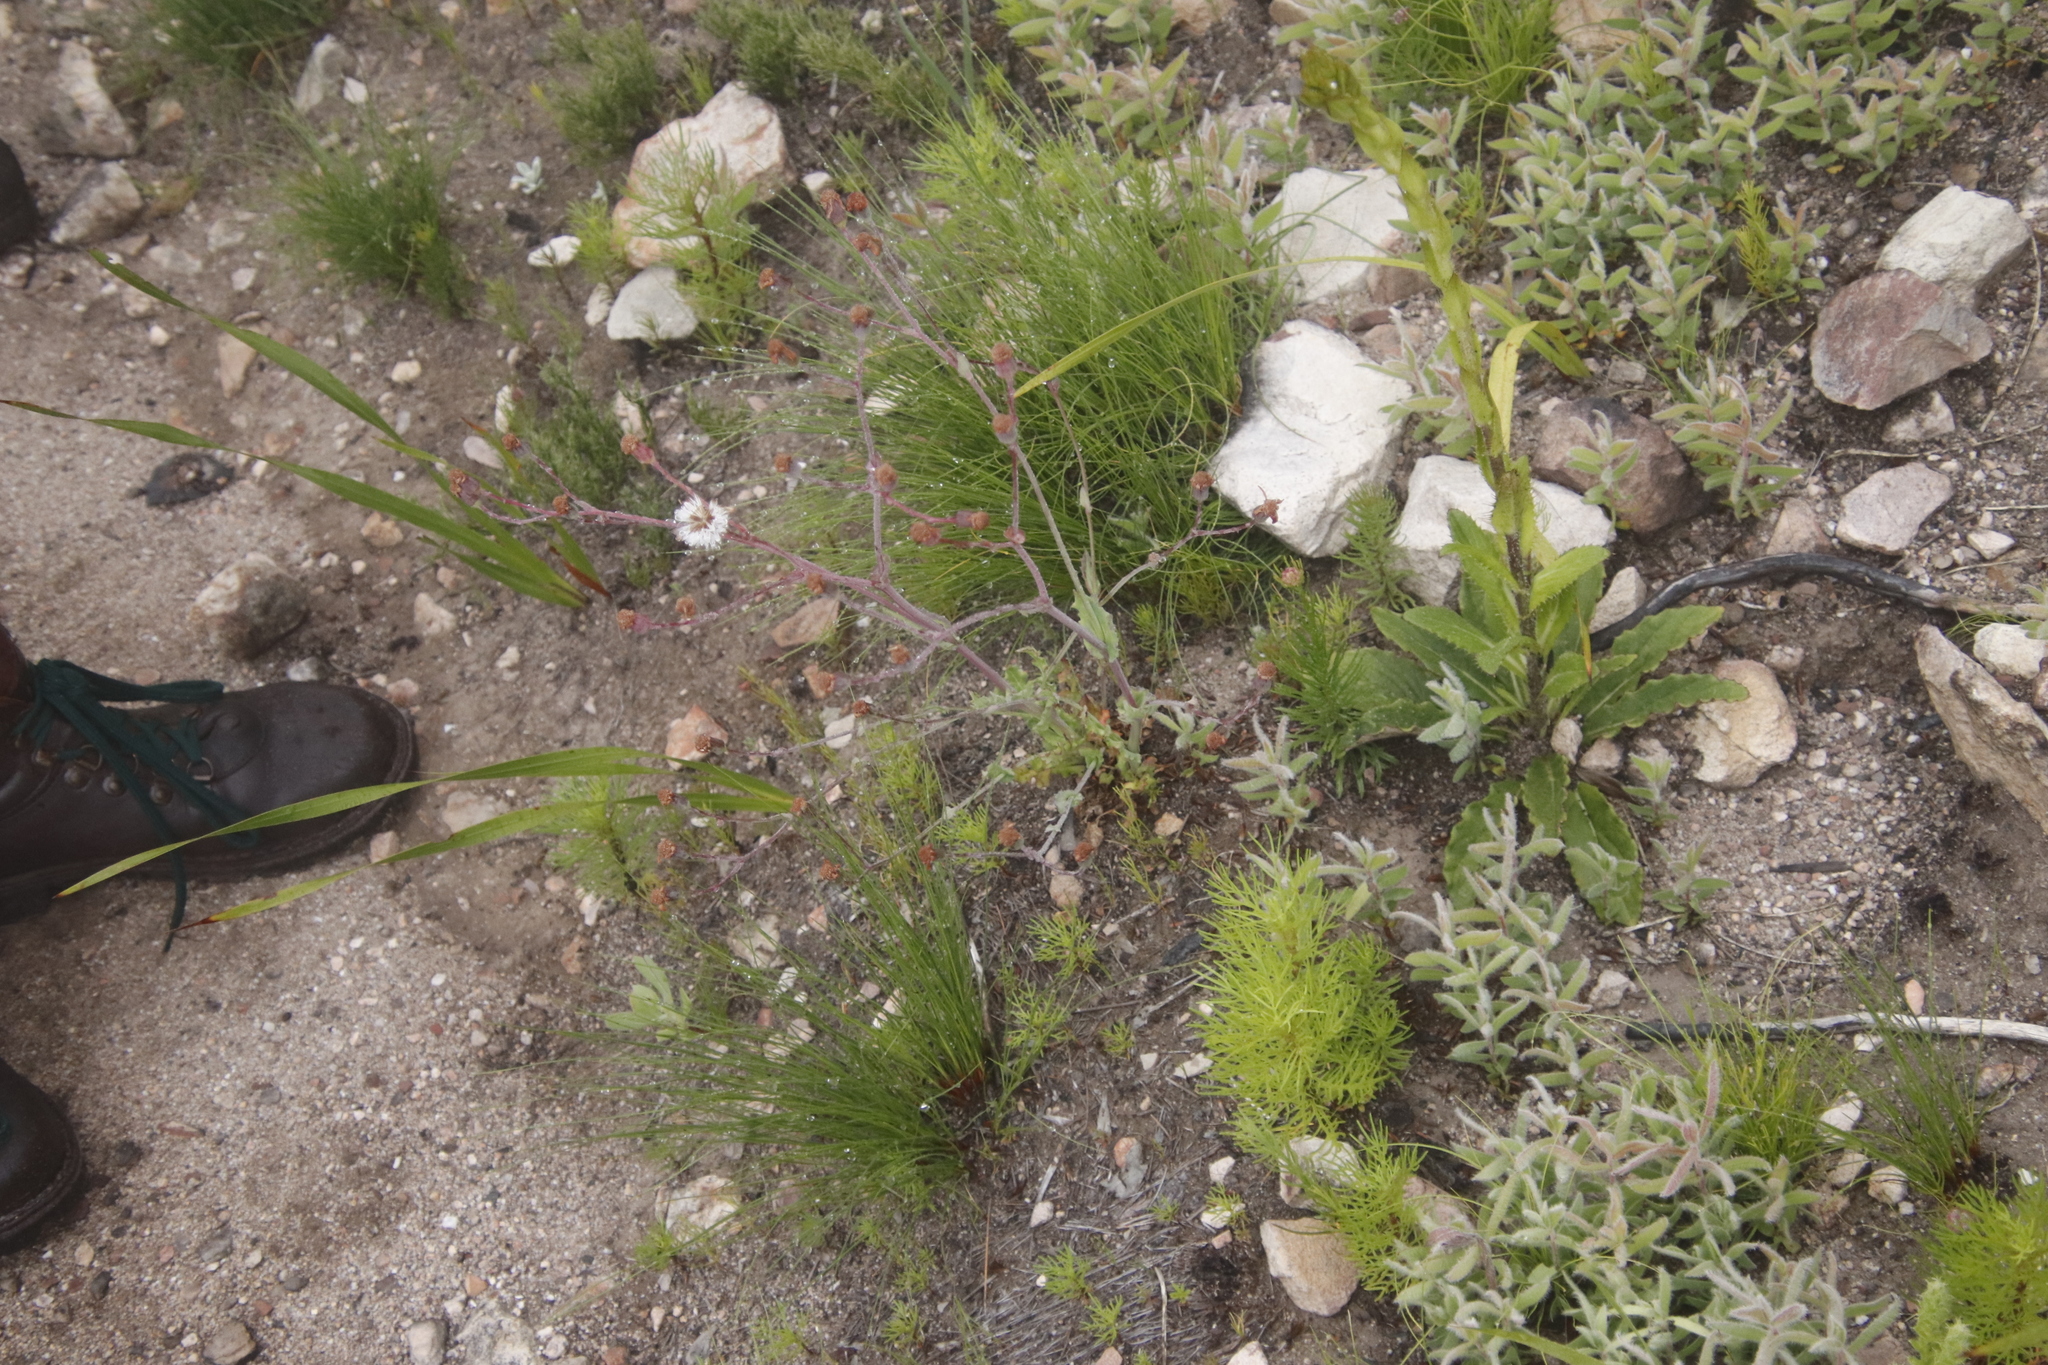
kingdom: Plantae
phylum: Tracheophyta
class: Magnoliopsida
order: Asterales
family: Asteraceae
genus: Senecio
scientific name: Senecio cymbalariifolius
